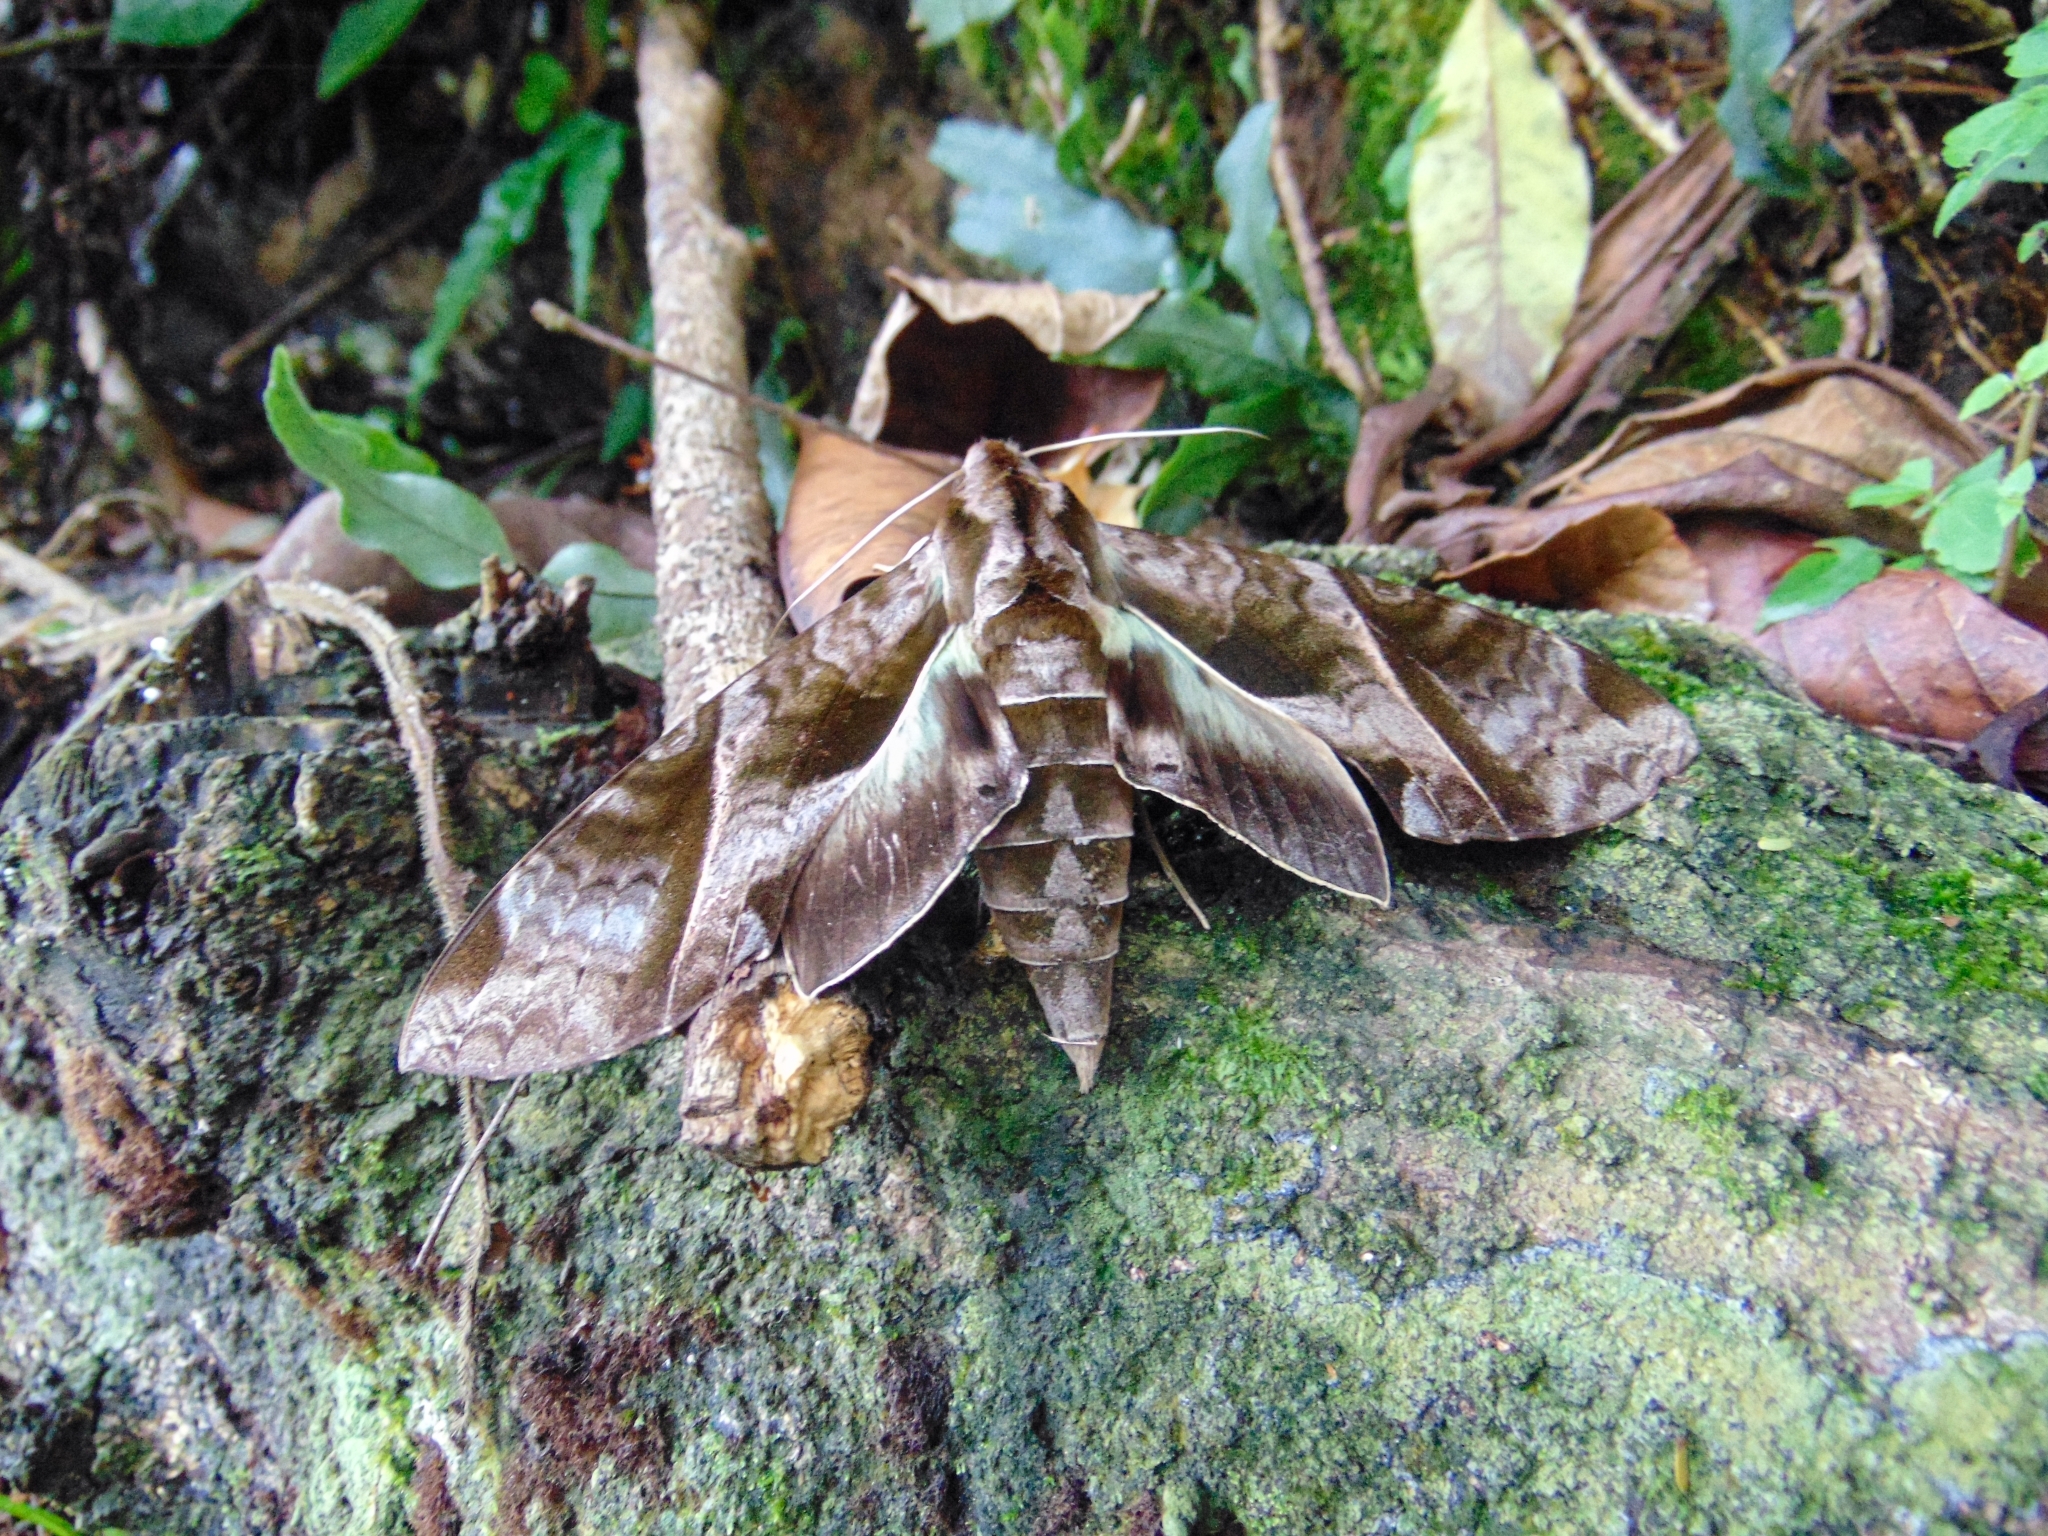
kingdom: Animalia
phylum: Arthropoda
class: Insecta
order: Lepidoptera
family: Sphingidae
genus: Eumorpha
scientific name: Eumorpha anchemolus
